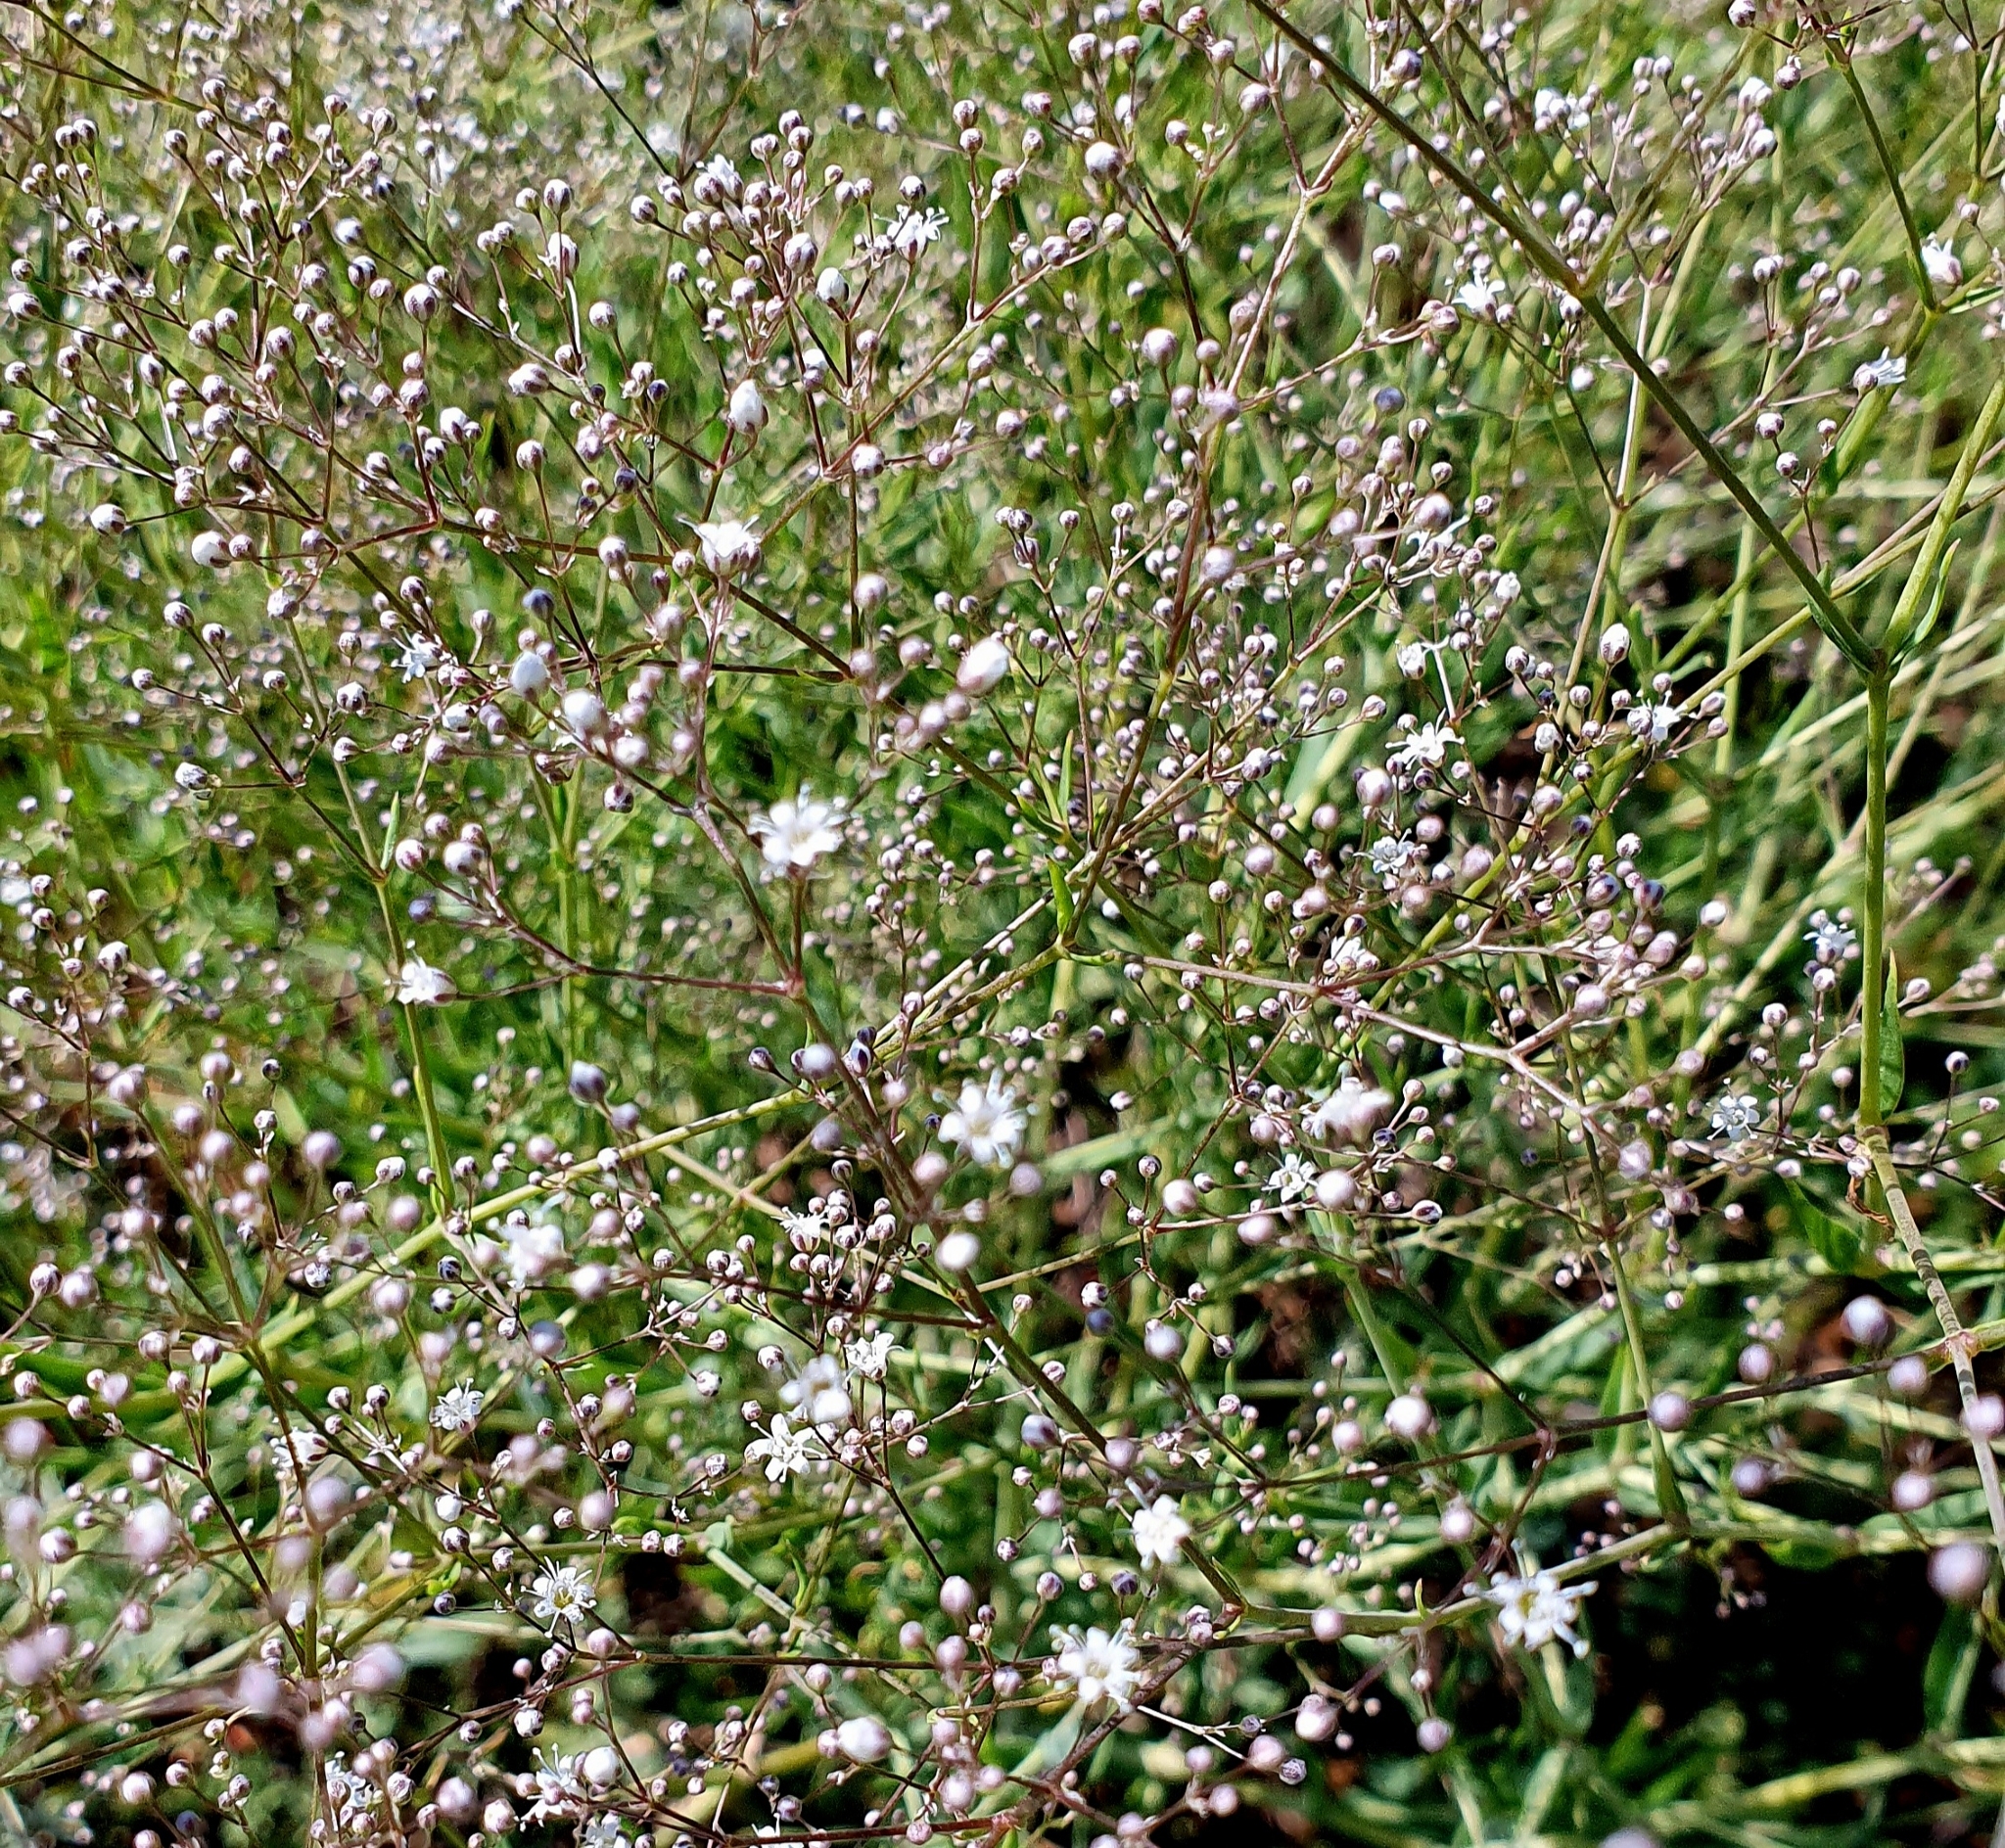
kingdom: Plantae
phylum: Tracheophyta
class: Magnoliopsida
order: Caryophyllales
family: Caryophyllaceae
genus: Gypsophila
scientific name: Gypsophila paniculata
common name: Baby's-breath
